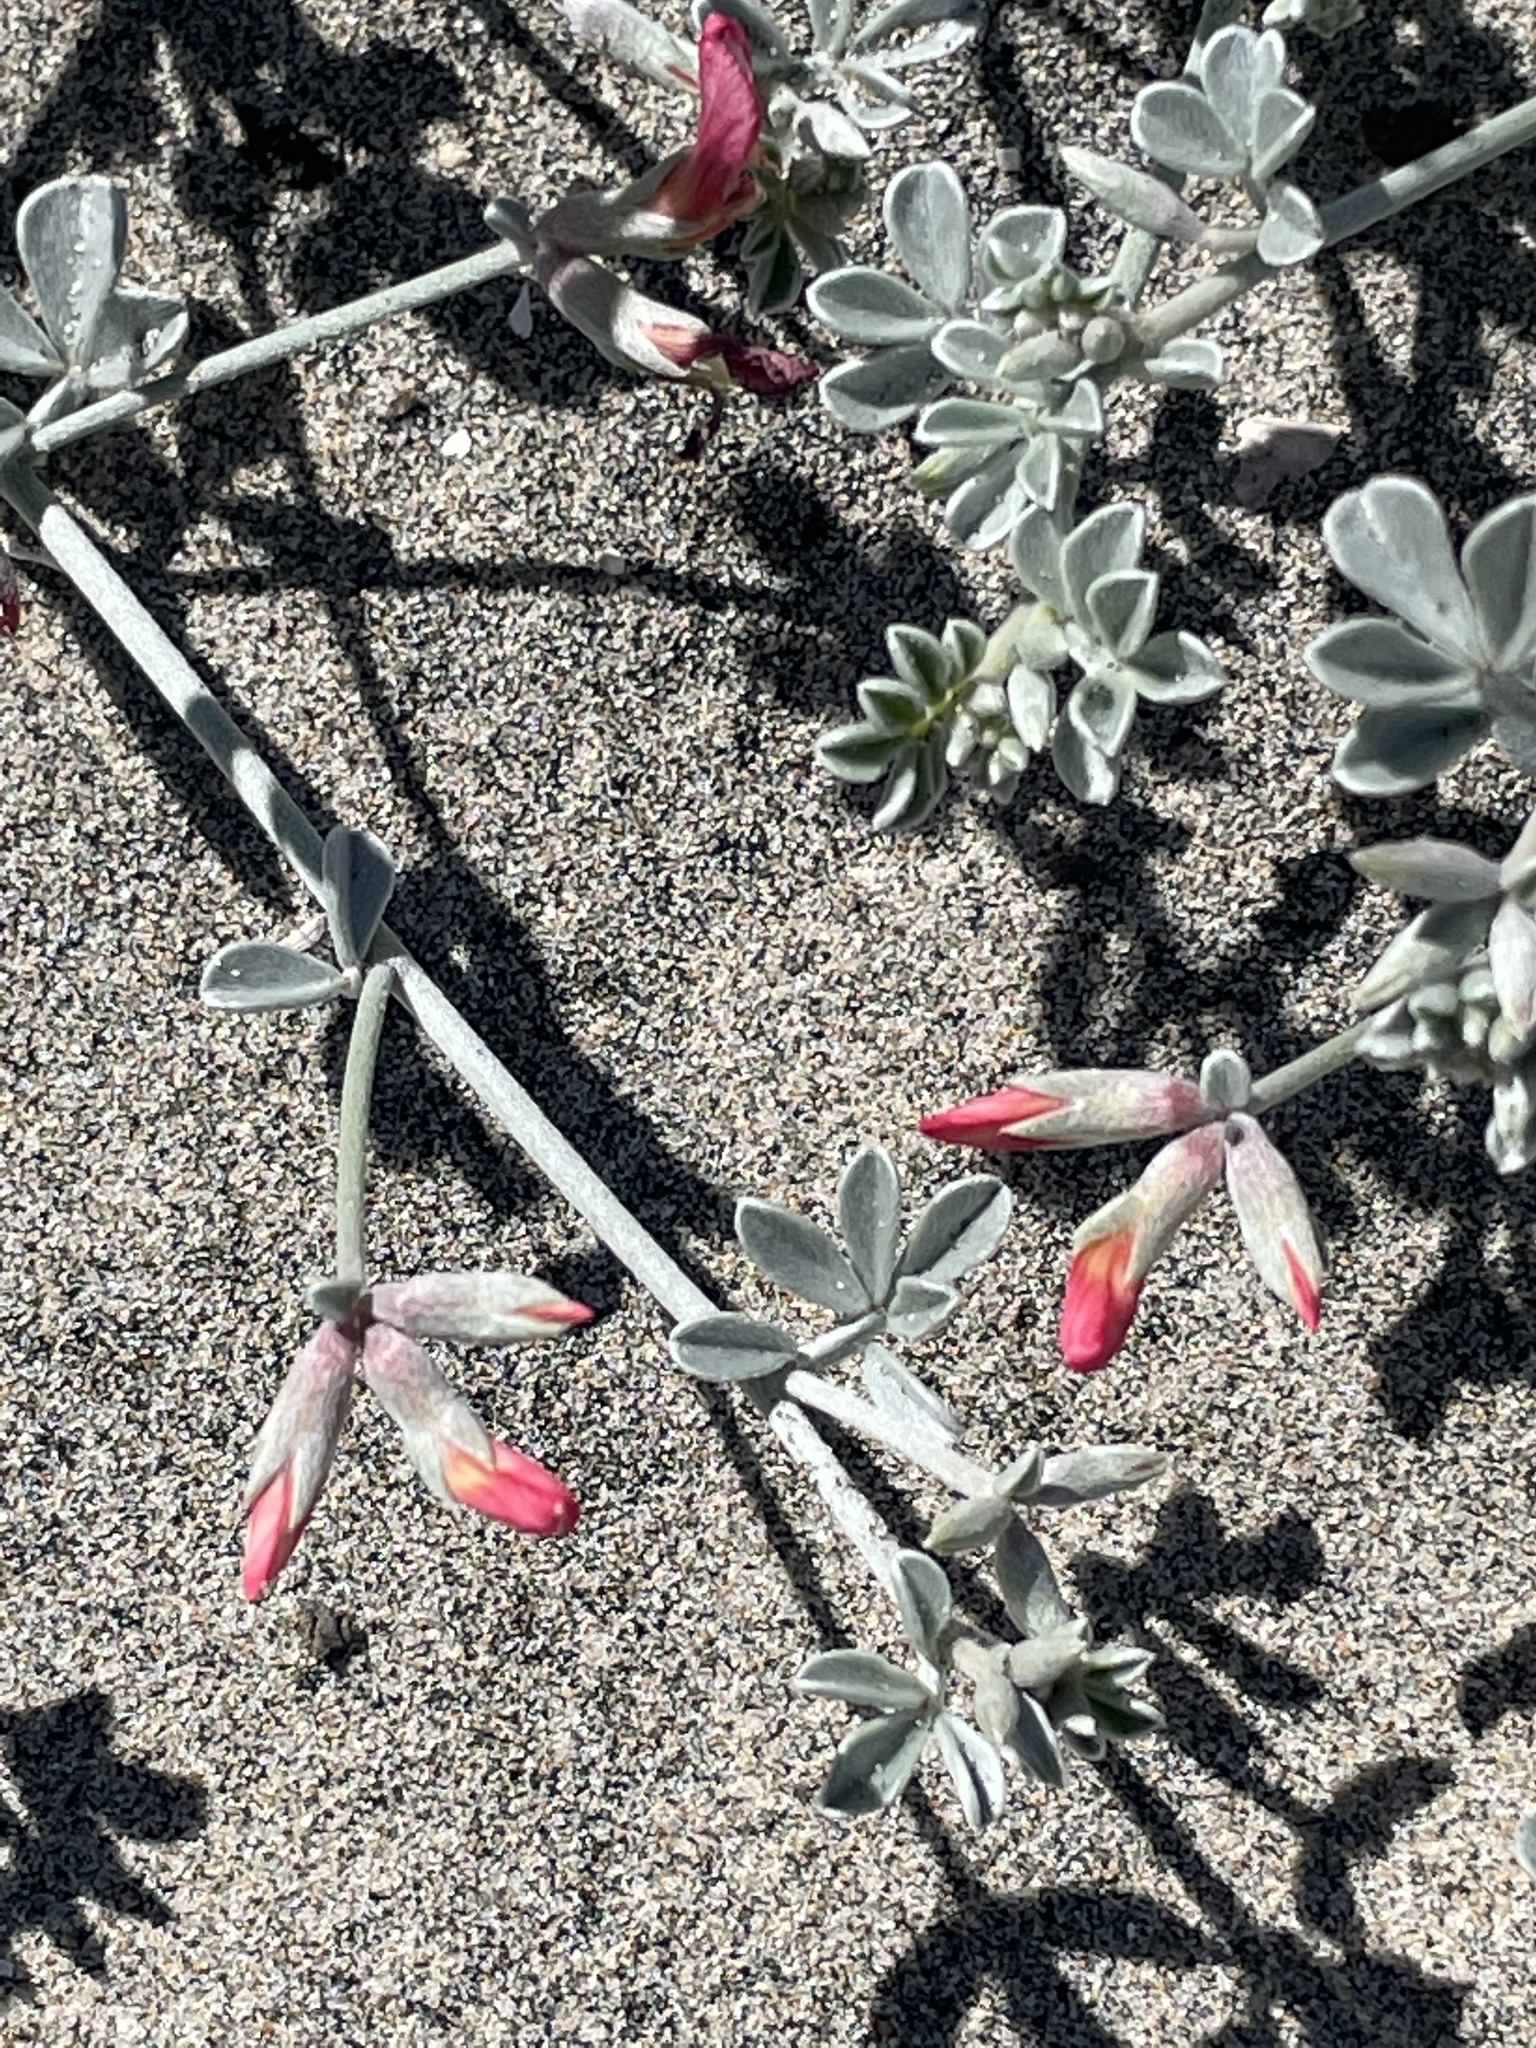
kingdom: Plantae
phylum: Tracheophyta
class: Magnoliopsida
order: Fabales
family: Fabaceae
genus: Acmispon
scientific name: Acmispon niveus
